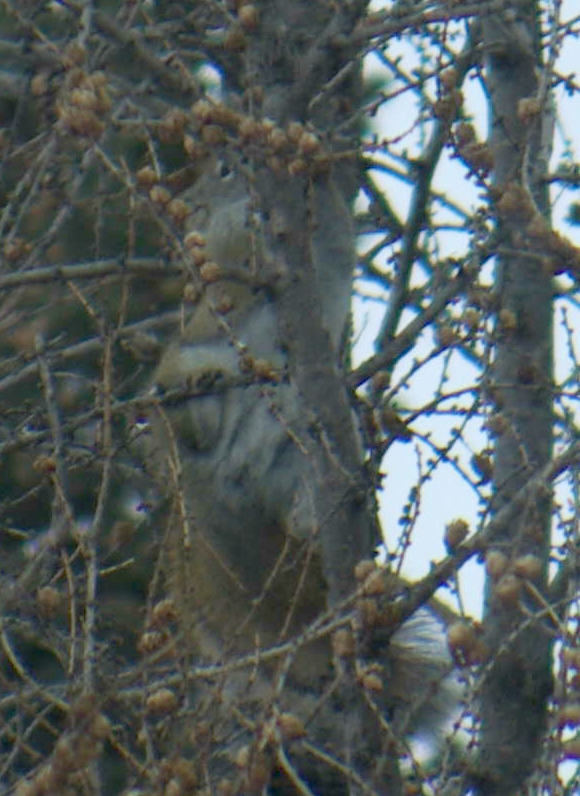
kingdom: Animalia
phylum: Chordata
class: Mammalia
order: Rodentia
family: Sciuridae
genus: Tamiasciurus
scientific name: Tamiasciurus hudsonicus
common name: Red squirrel
